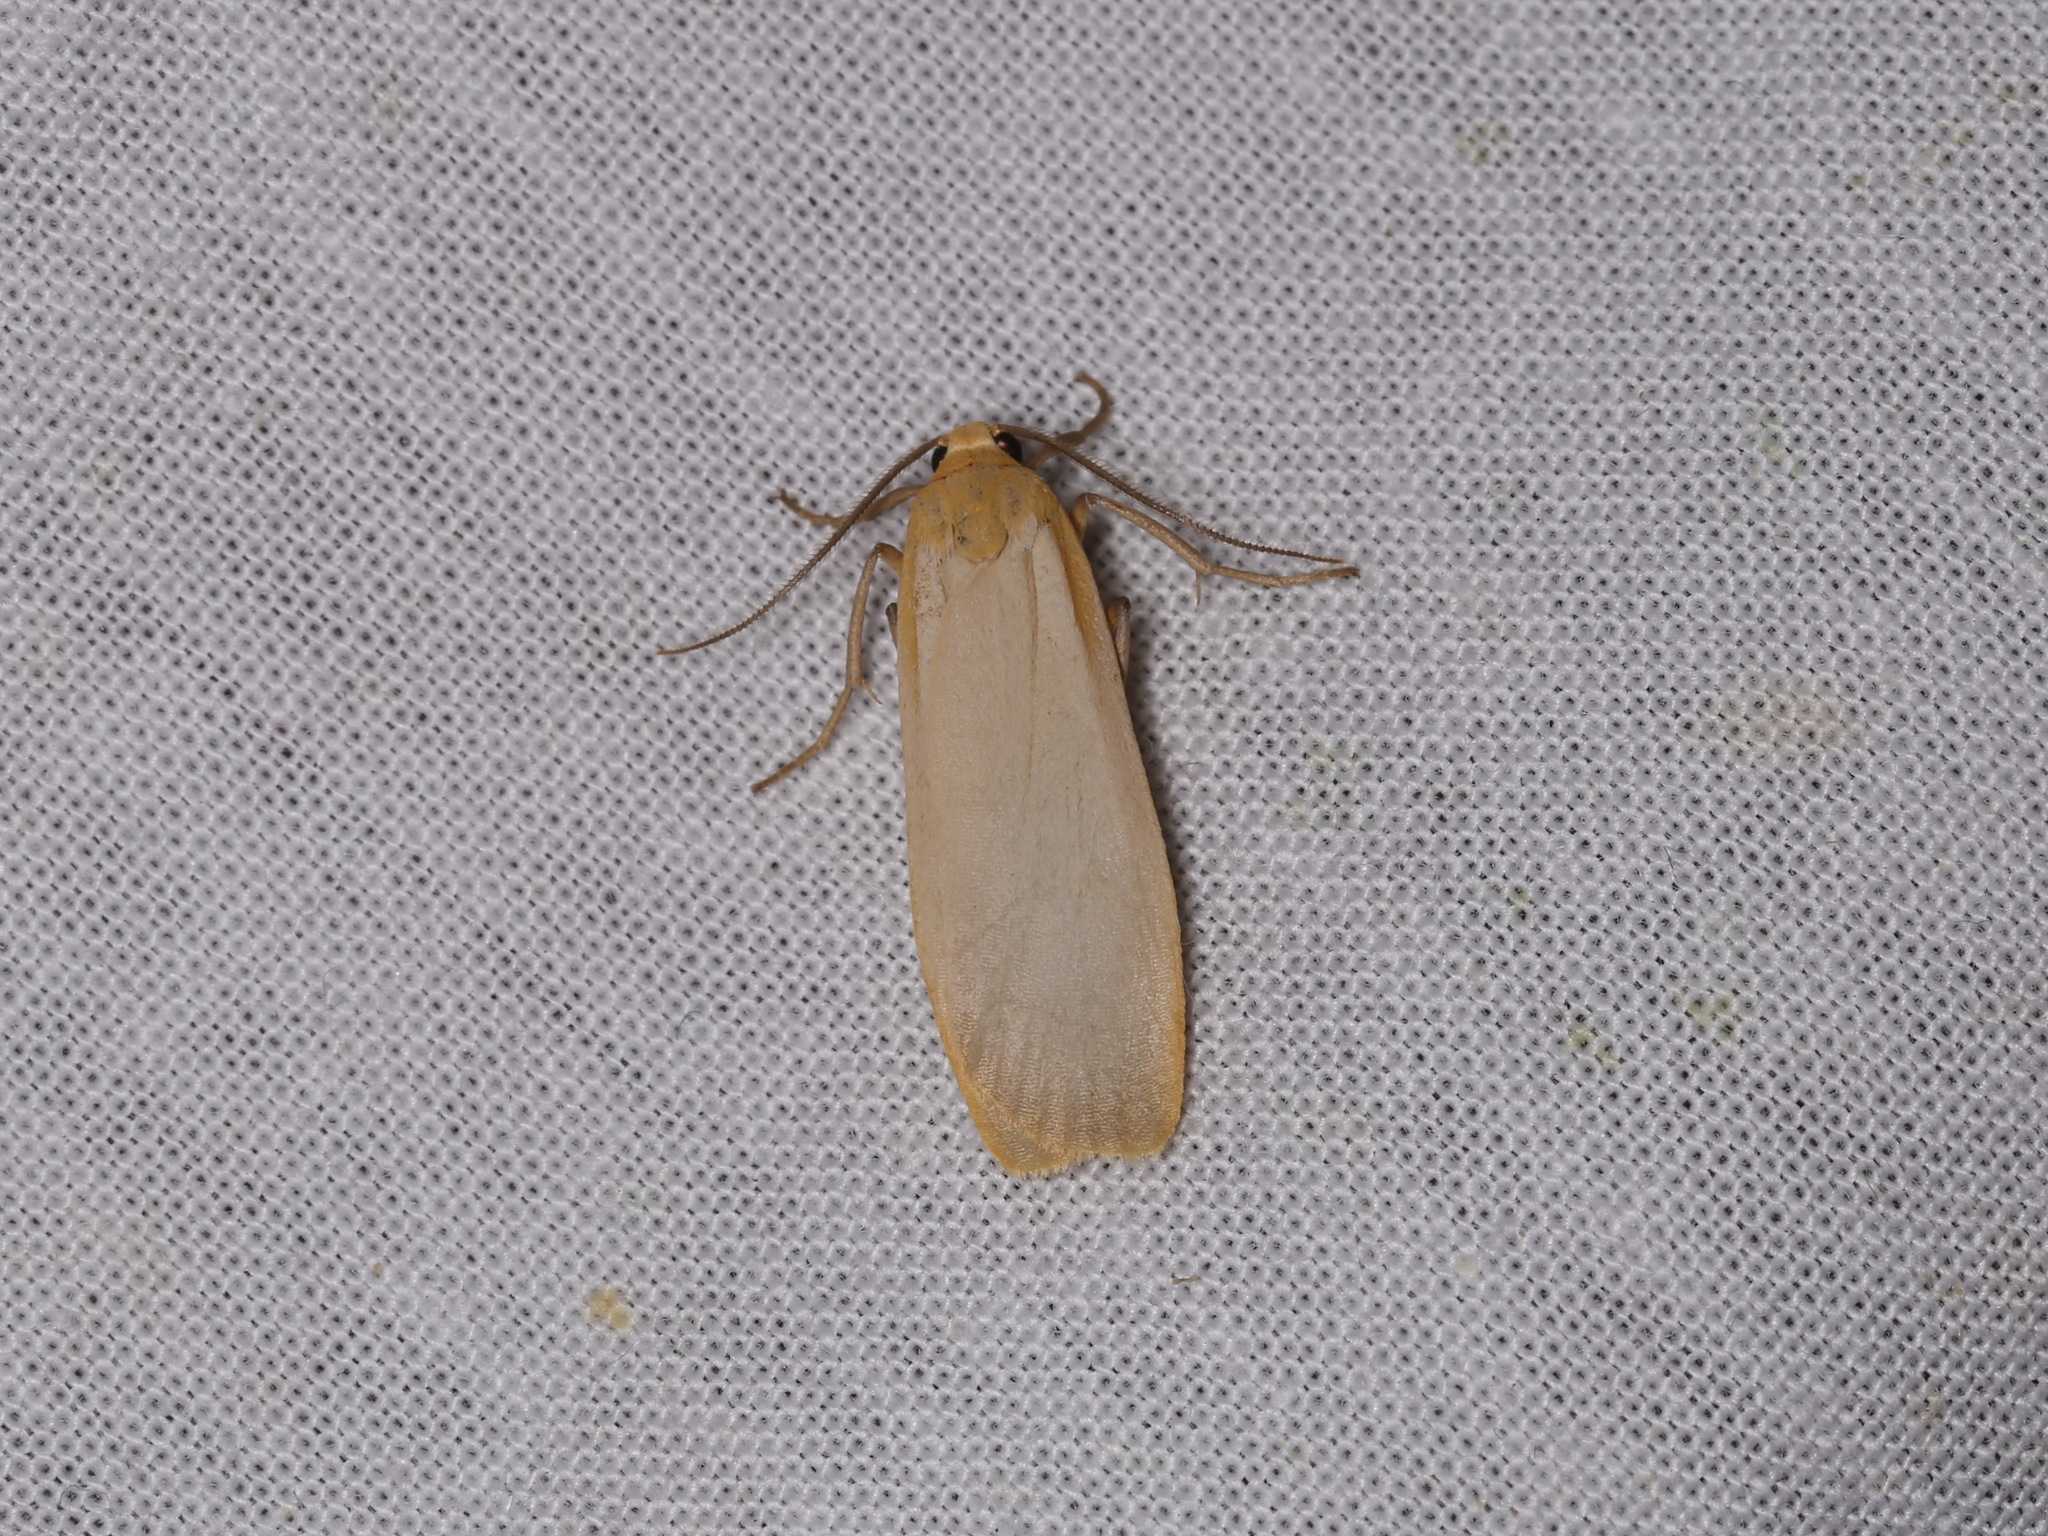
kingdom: Animalia
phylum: Arthropoda
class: Insecta
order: Lepidoptera
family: Erebidae
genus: Katha
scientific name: Katha depressa
